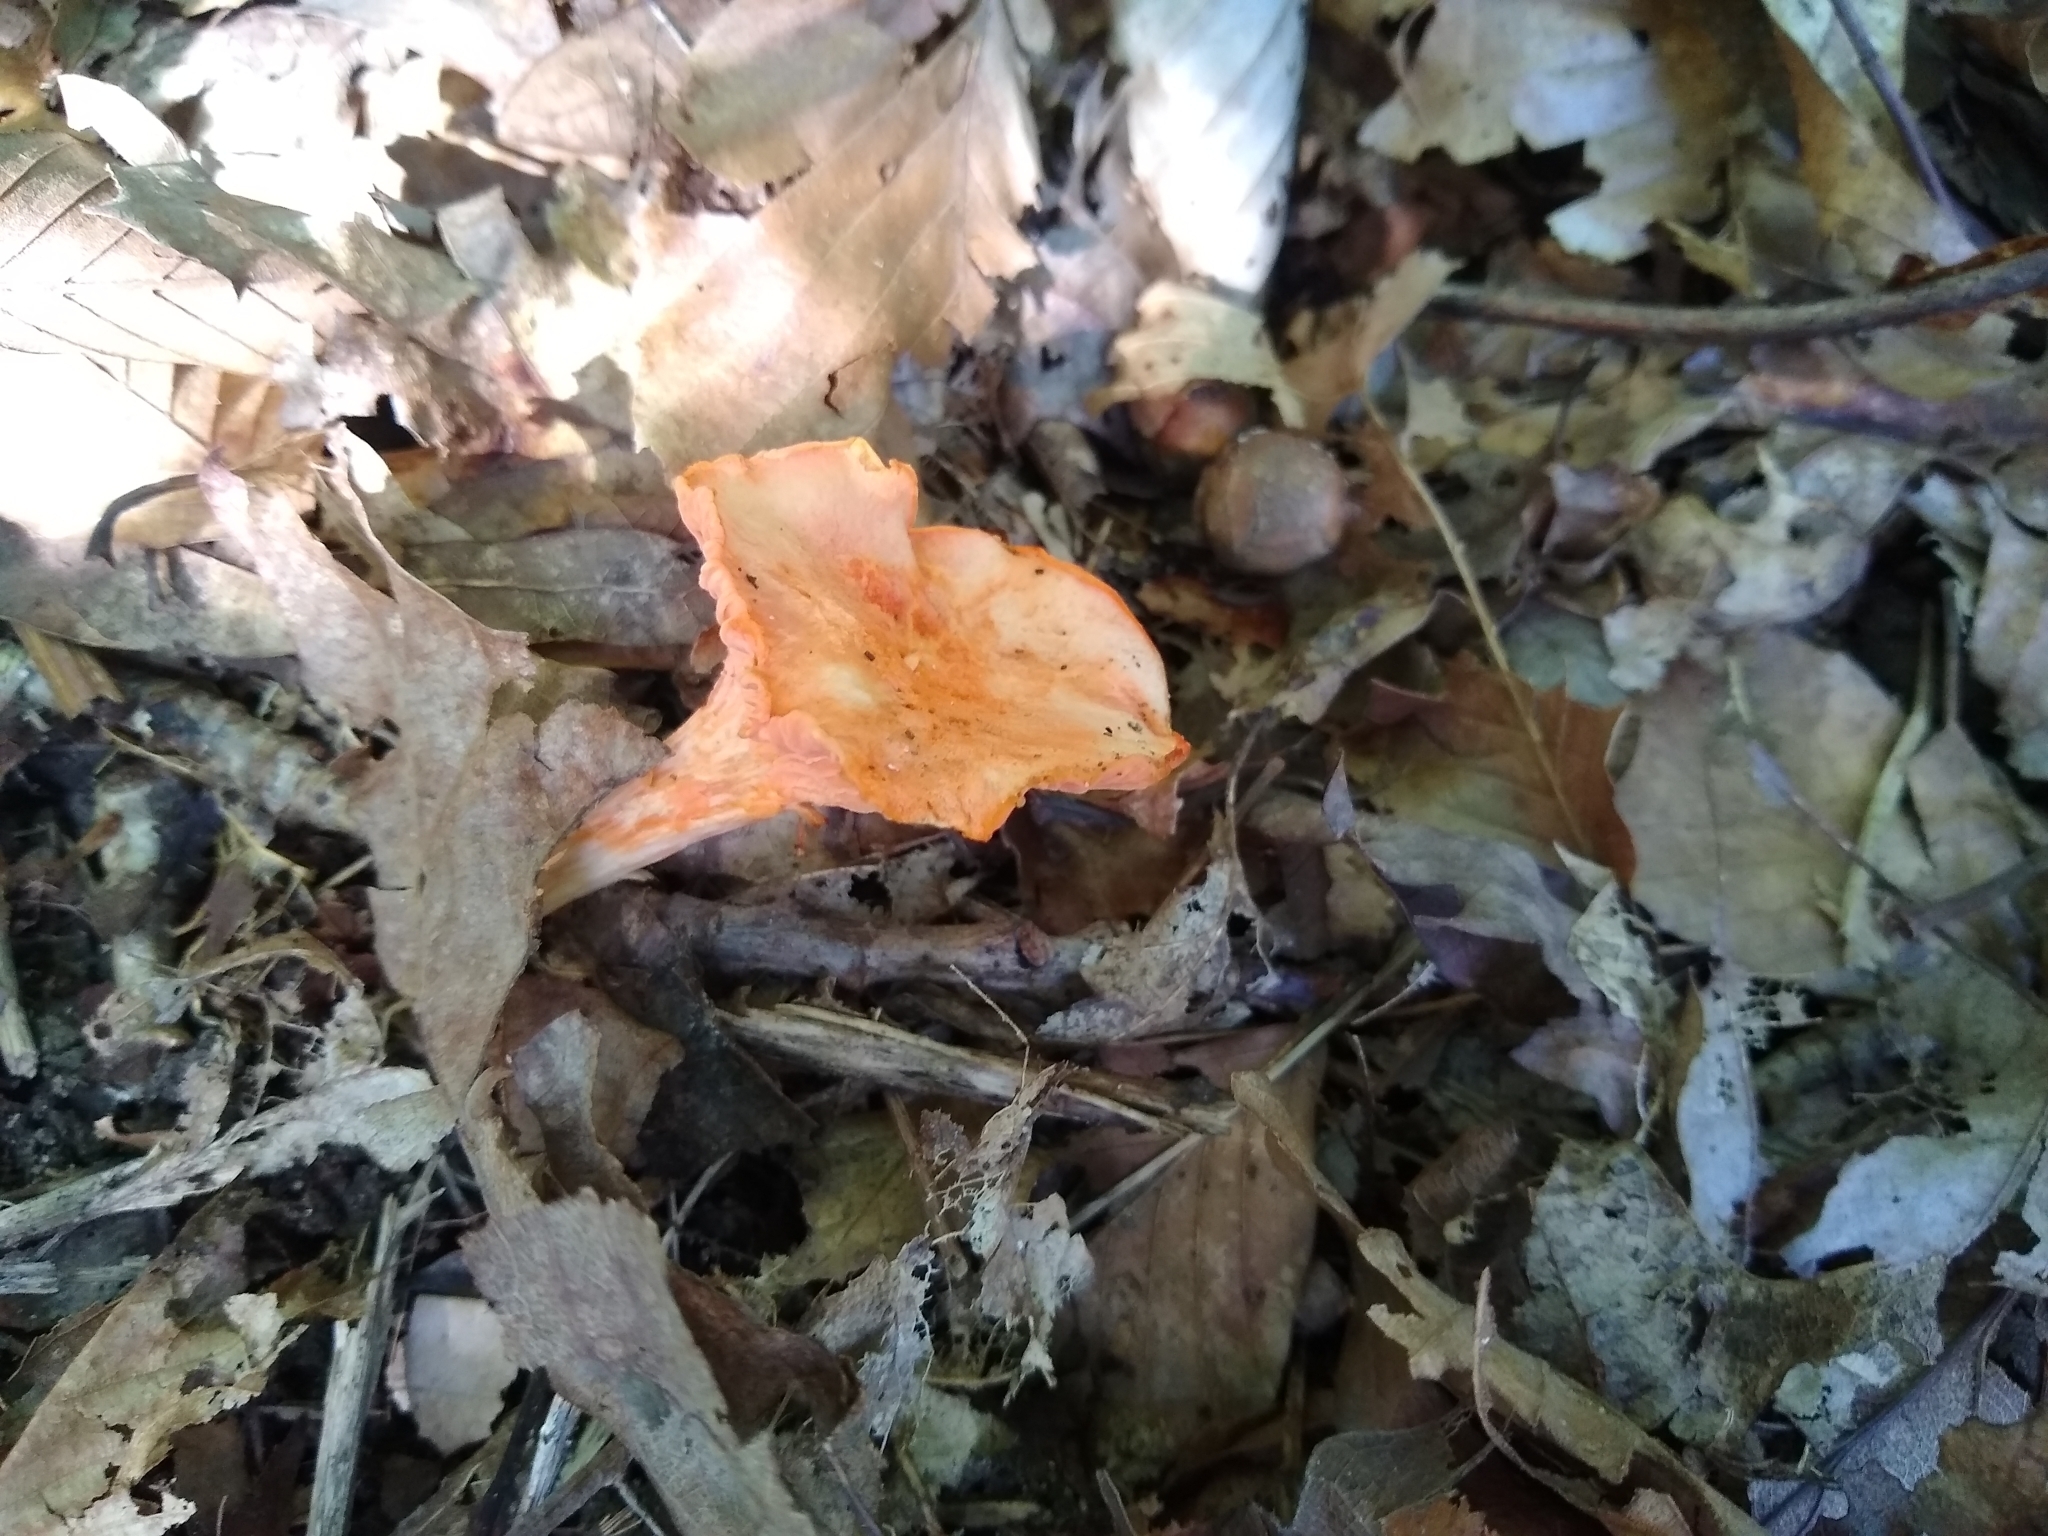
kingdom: Fungi
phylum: Basidiomycota
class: Agaricomycetes
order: Cantharellales
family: Hydnaceae
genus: Cantharellus
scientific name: Cantharellus cinnabarinus
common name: Cinnabar chanterelle
